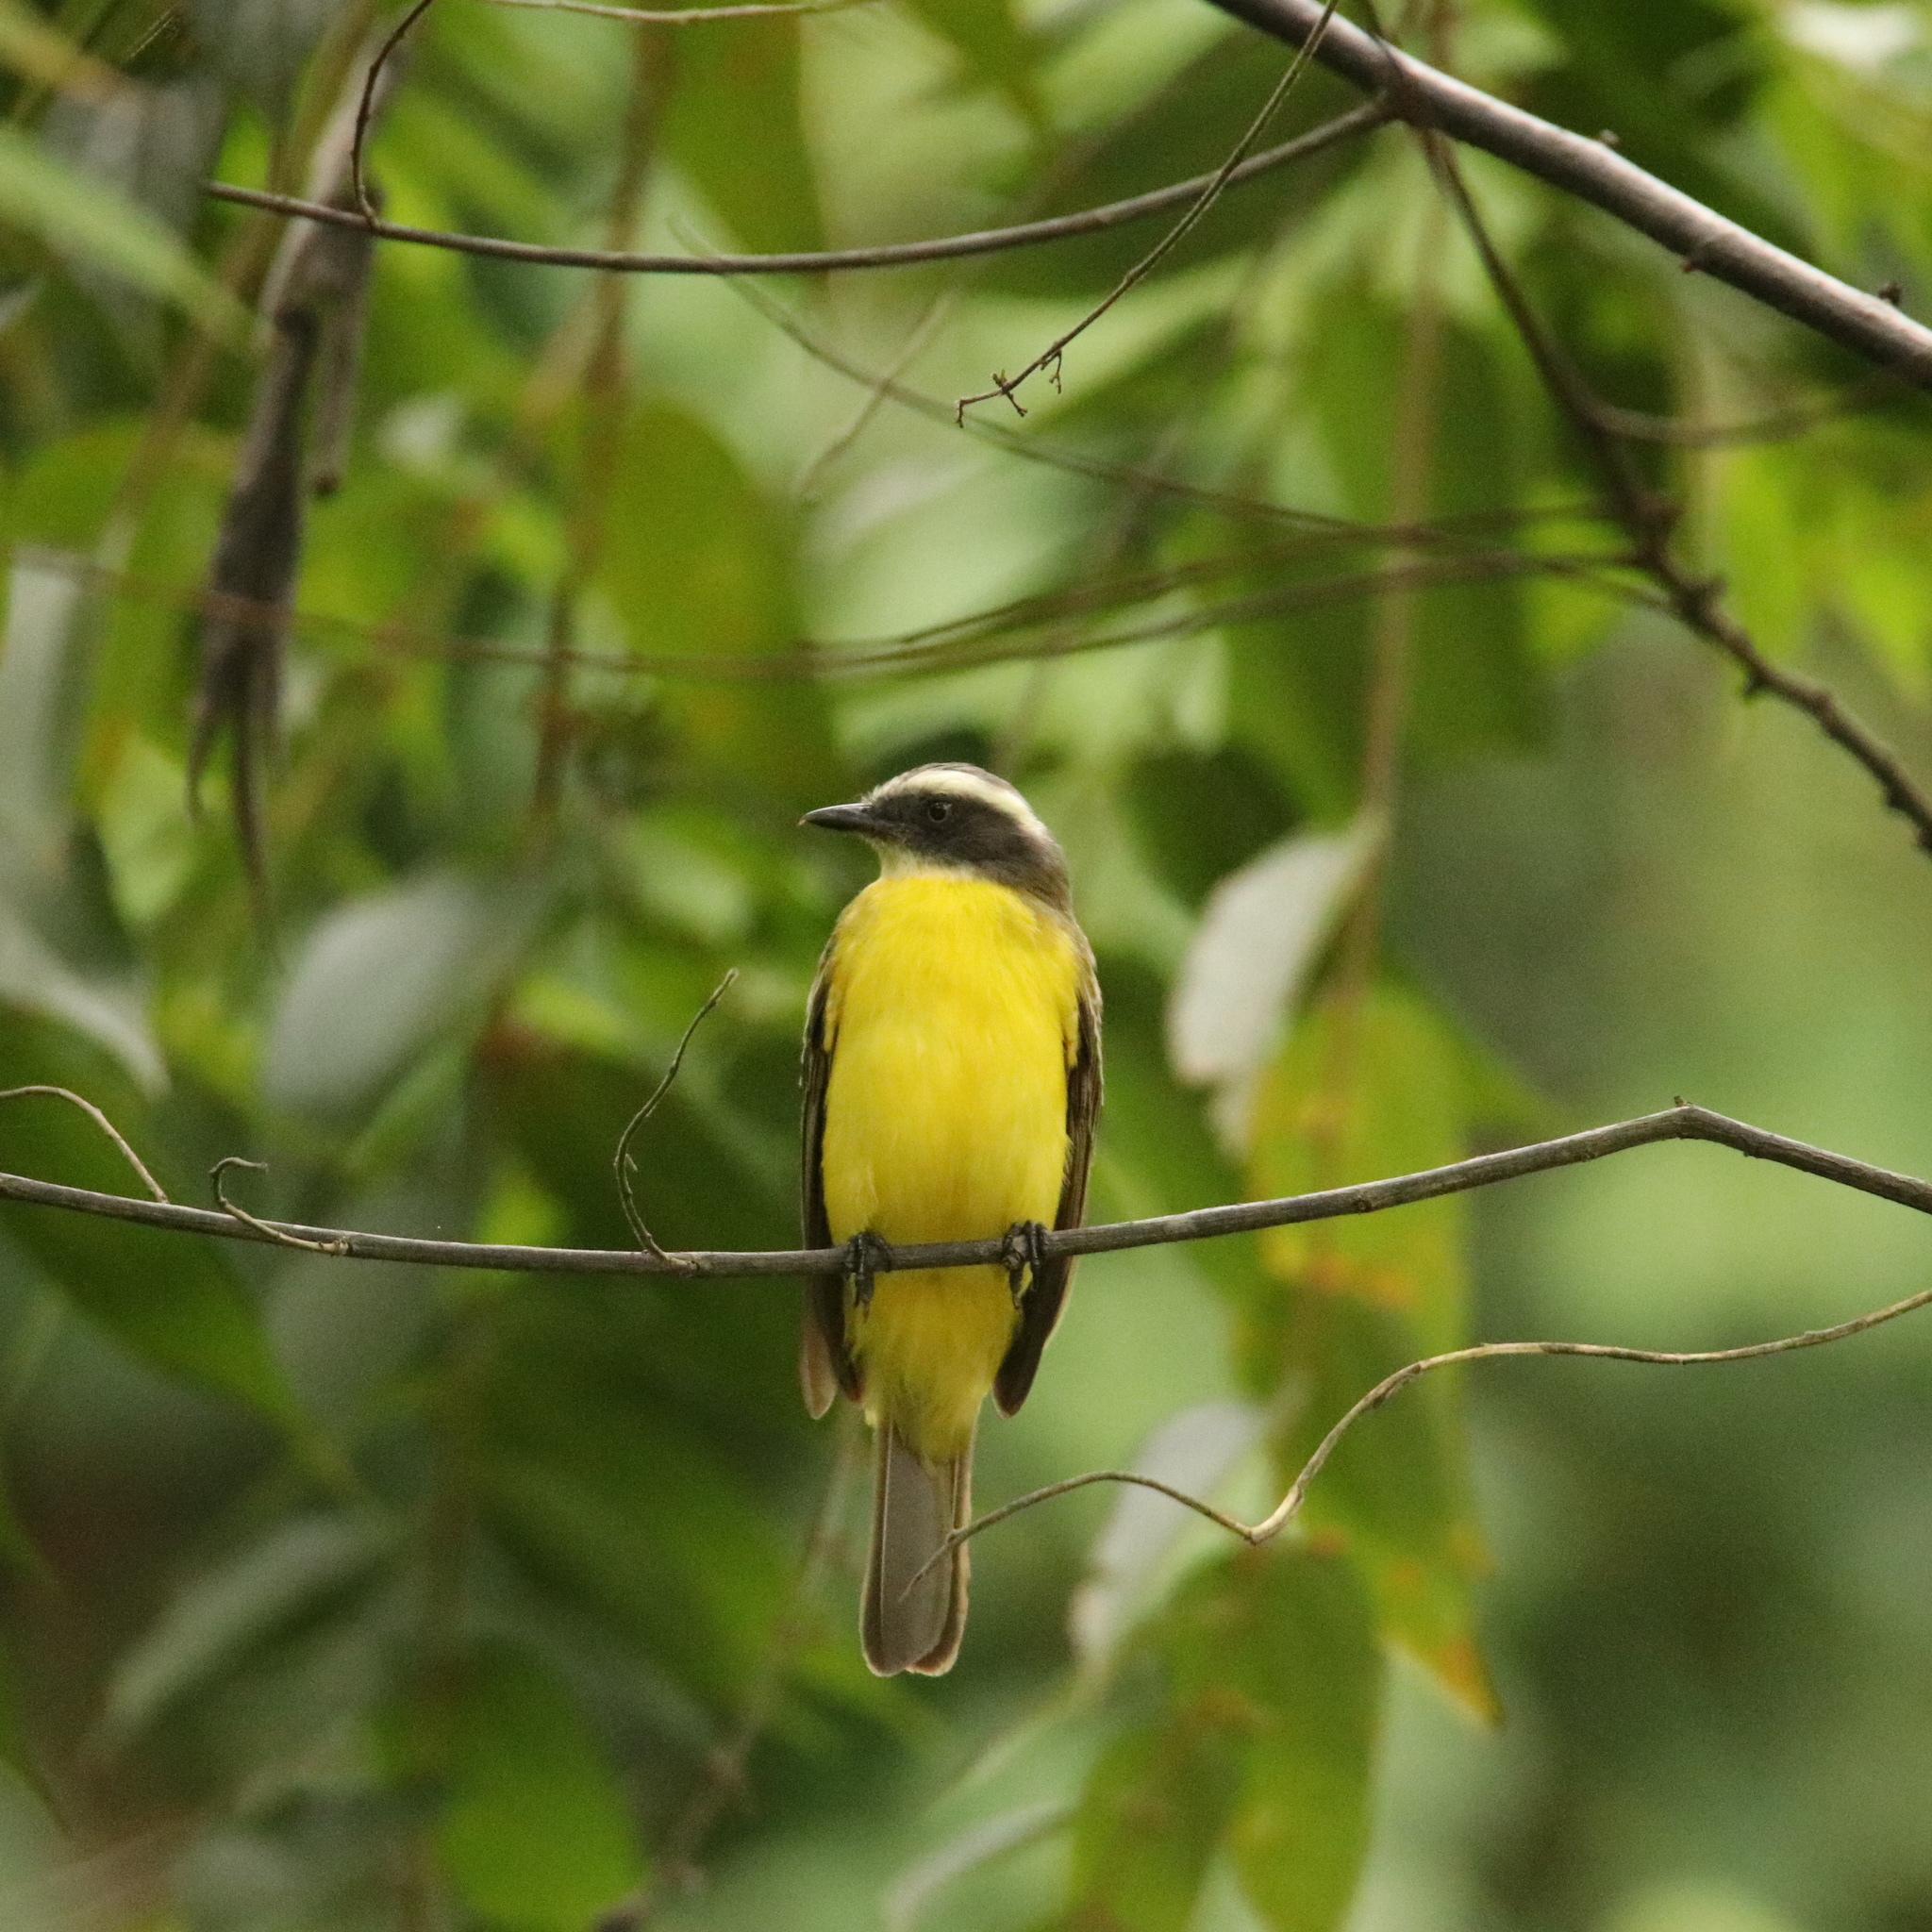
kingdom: Animalia
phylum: Chordata
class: Aves
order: Passeriformes
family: Tyrannidae
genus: Myiozetetes
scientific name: Myiozetetes similis
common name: Social flycatcher
